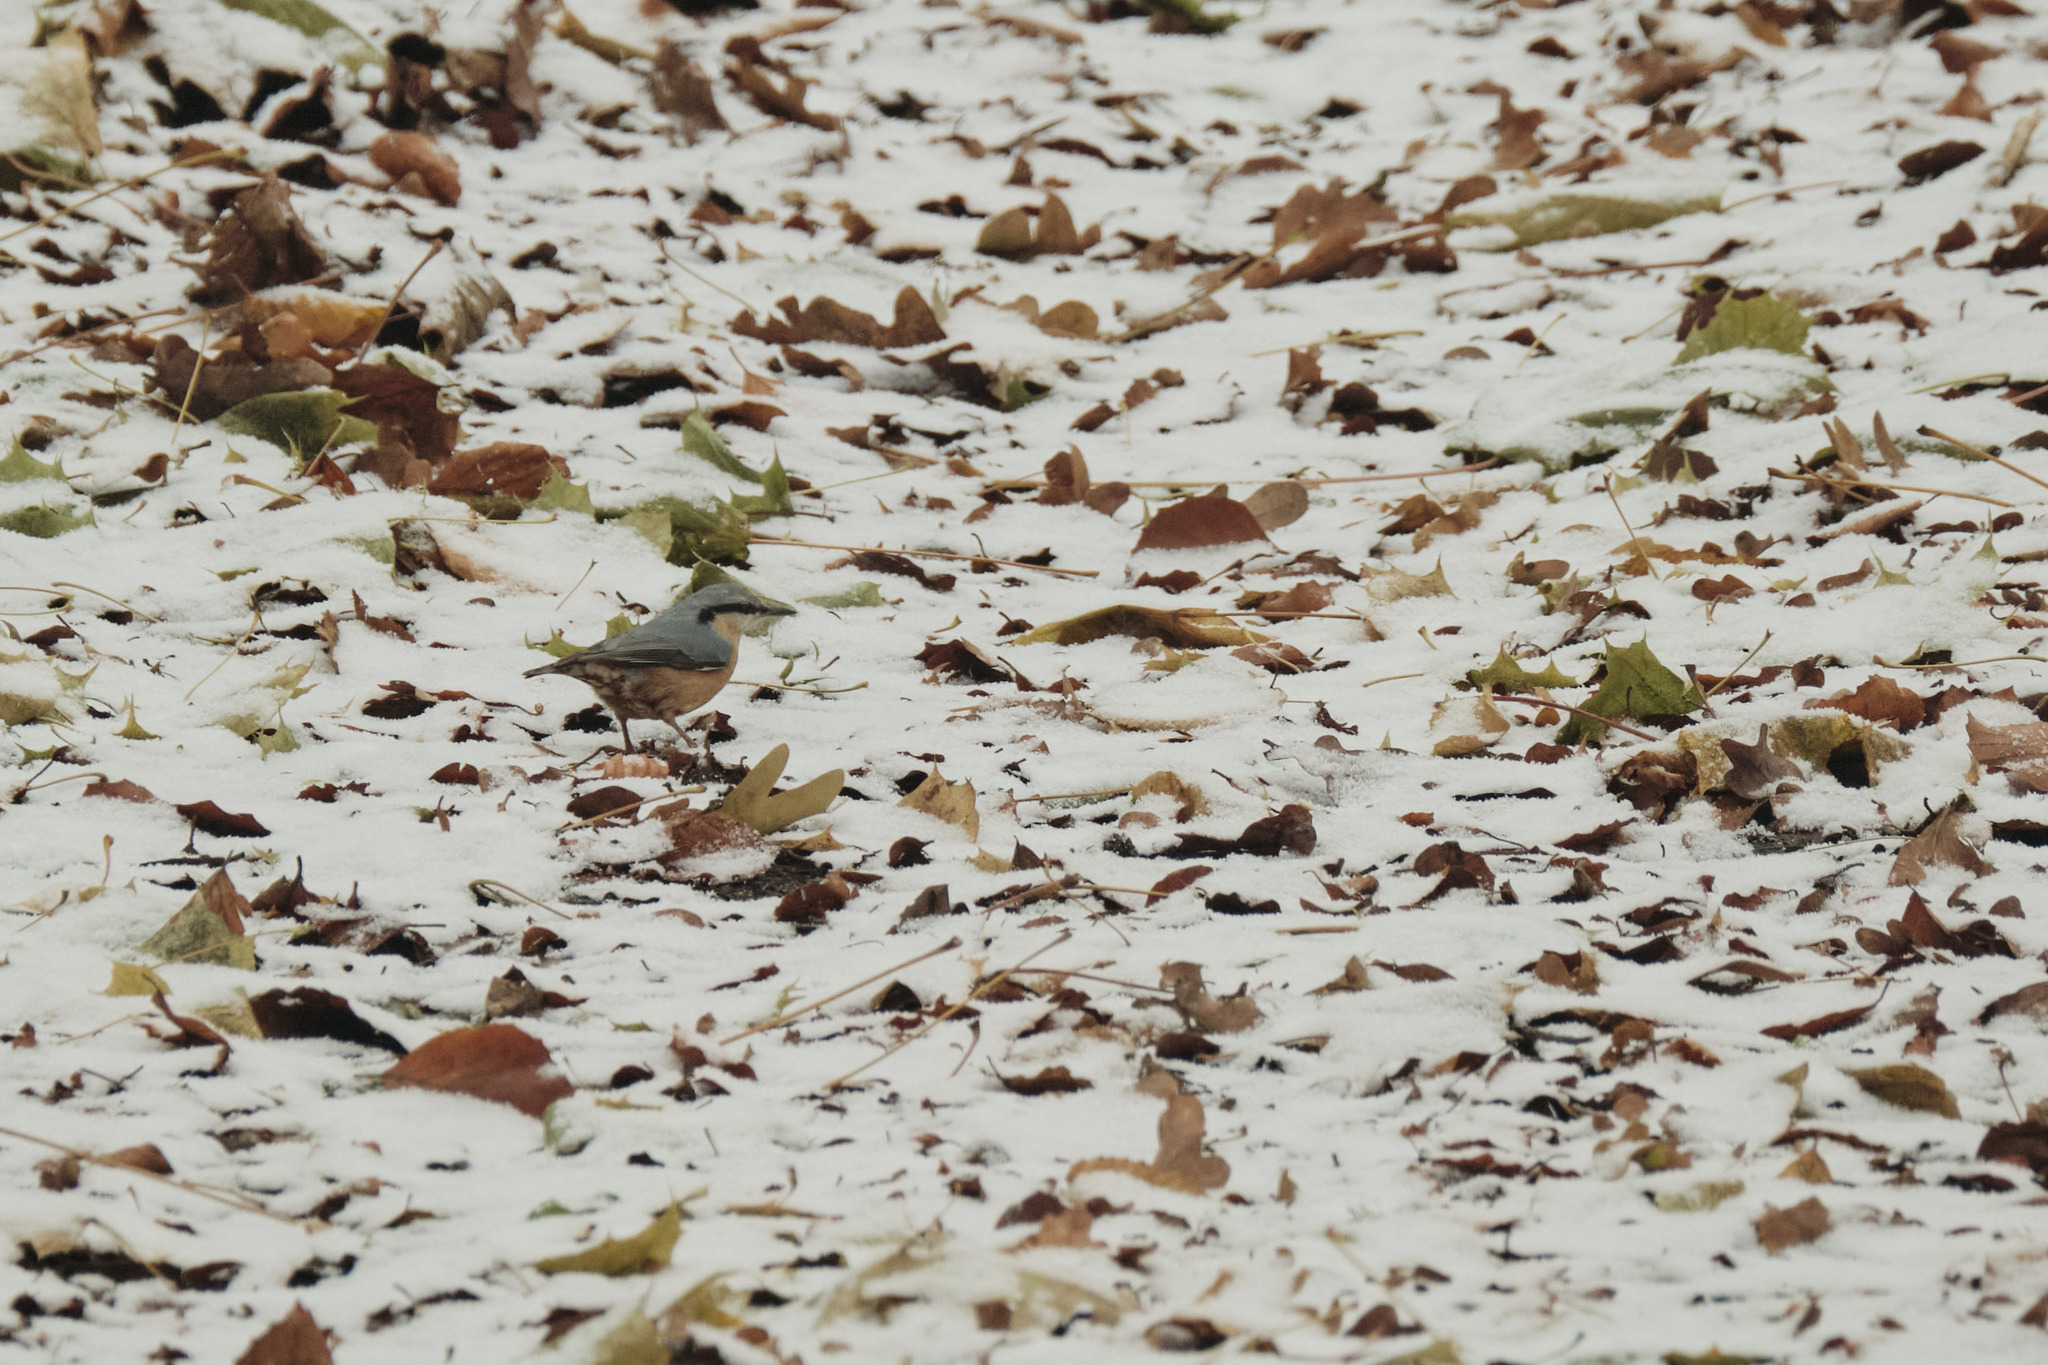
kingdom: Animalia
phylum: Chordata
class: Aves
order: Passeriformes
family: Sittidae
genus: Sitta
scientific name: Sitta europaea
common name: Eurasian nuthatch
